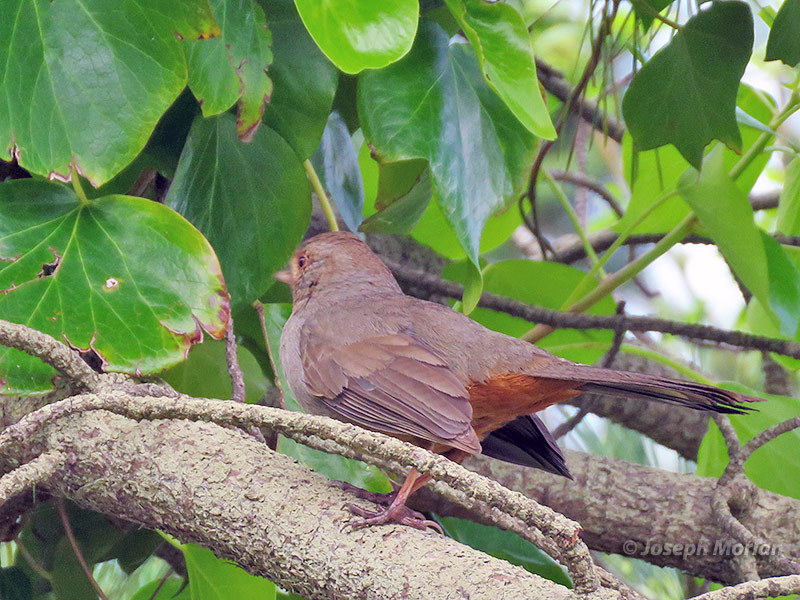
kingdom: Animalia
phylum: Chordata
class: Aves
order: Passeriformes
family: Passerellidae
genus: Melozone
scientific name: Melozone crissalis
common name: California towhee
